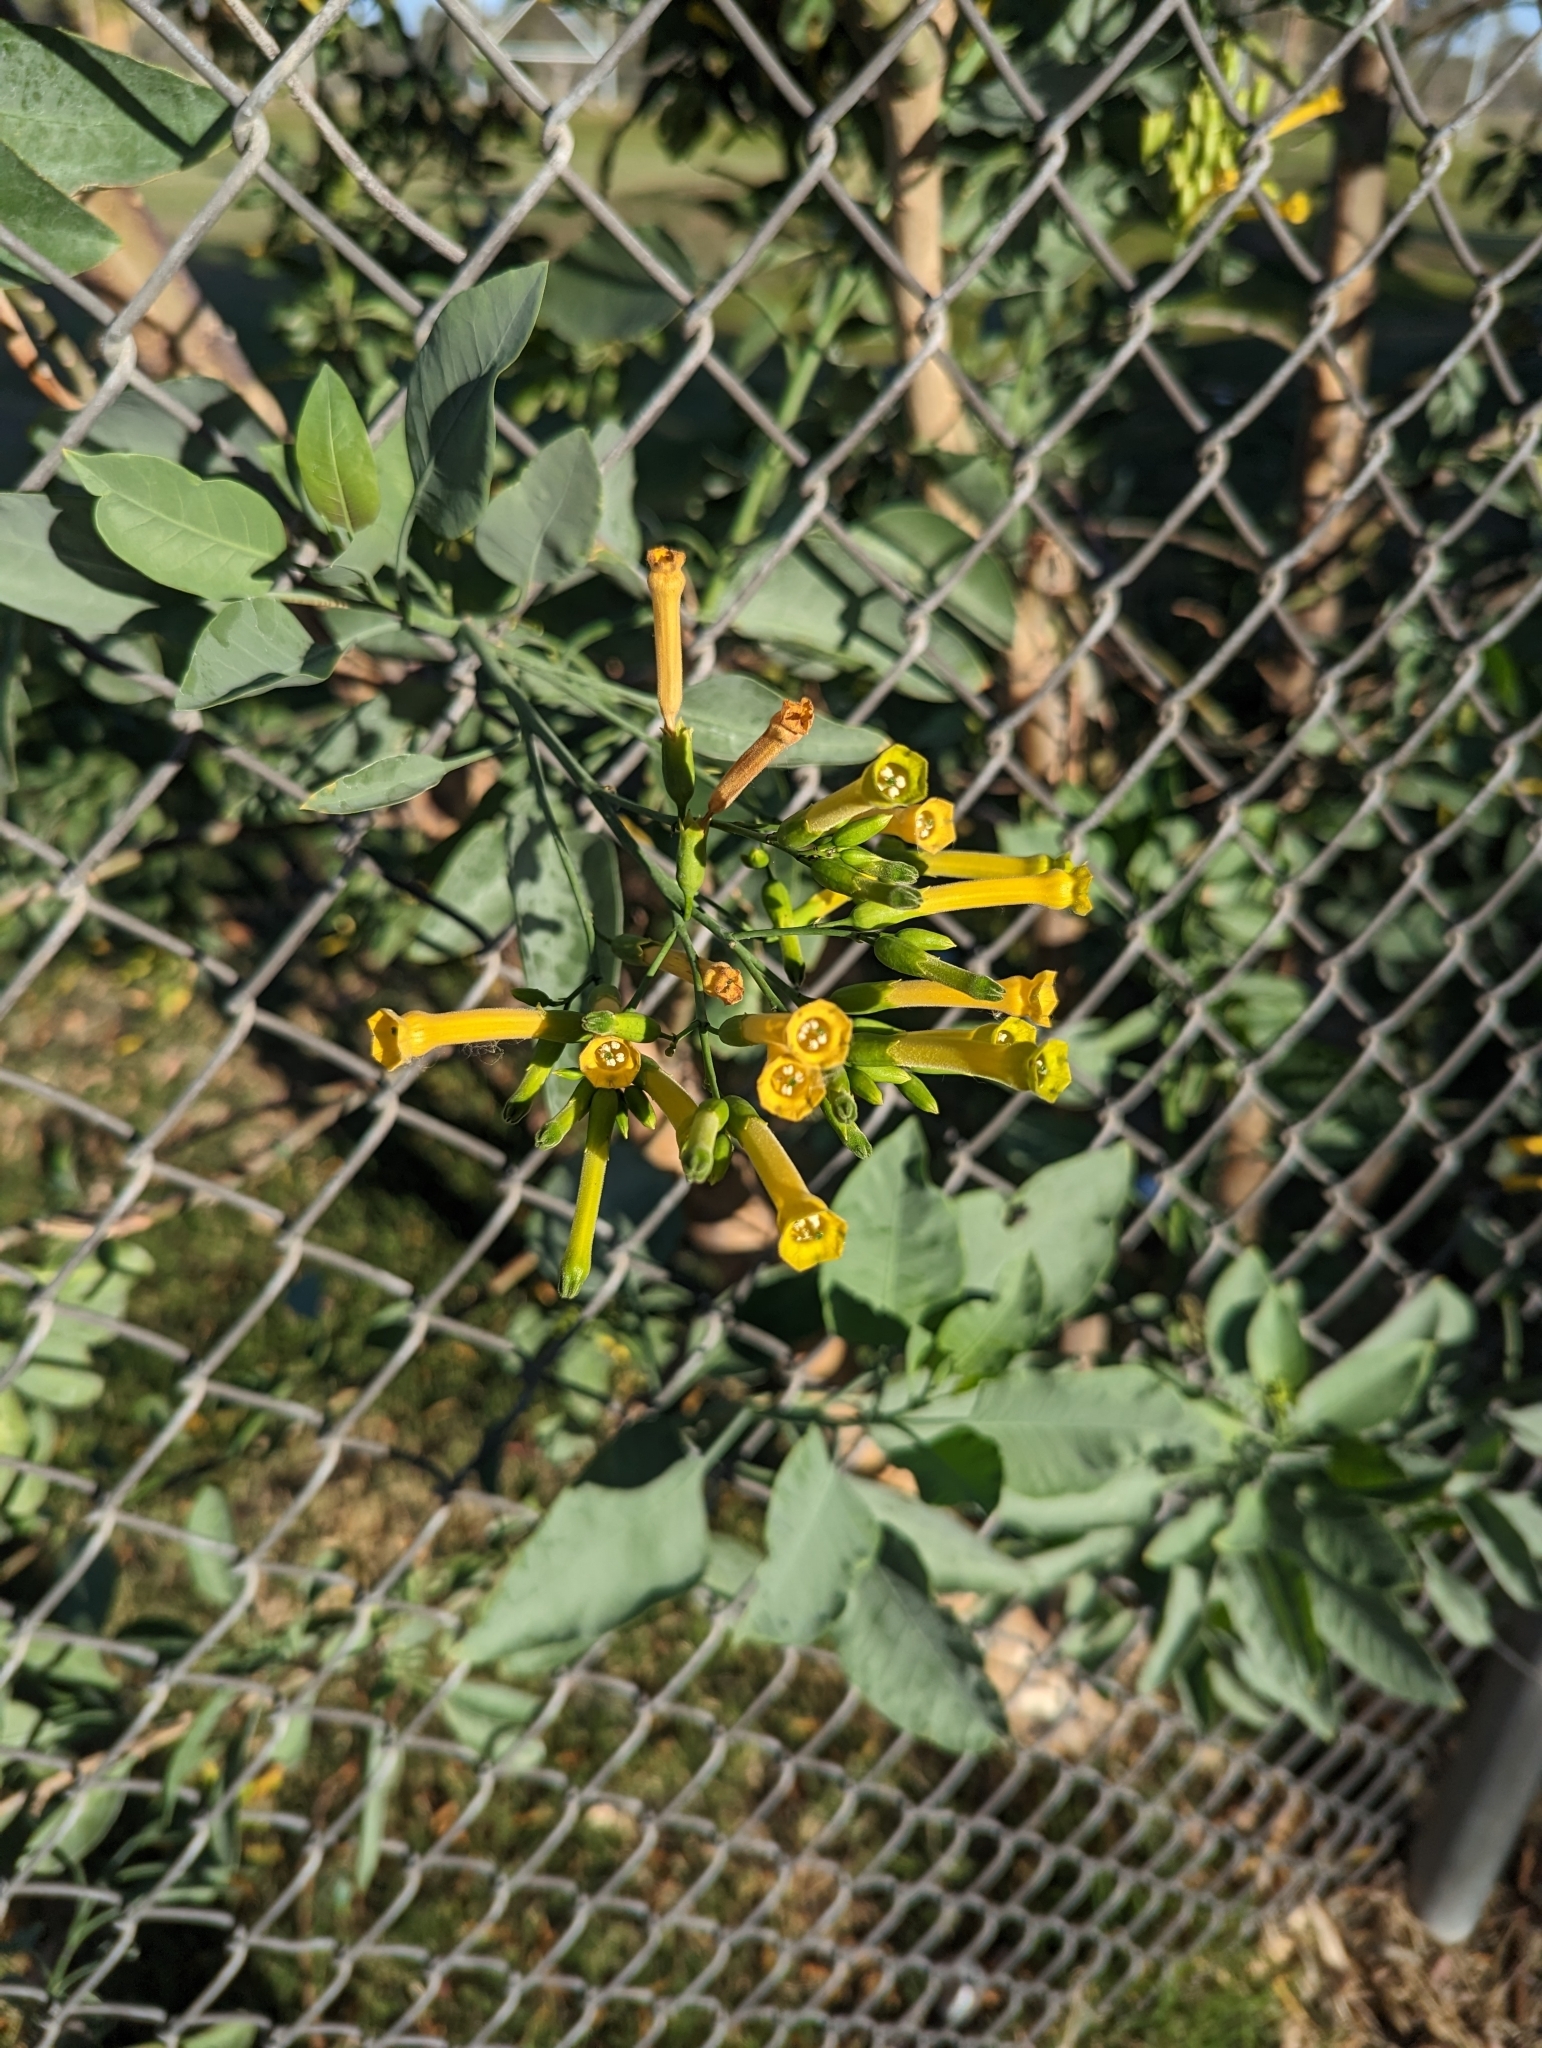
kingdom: Plantae
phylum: Tracheophyta
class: Magnoliopsida
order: Solanales
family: Solanaceae
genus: Nicotiana
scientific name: Nicotiana glauca
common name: Tree tobacco
